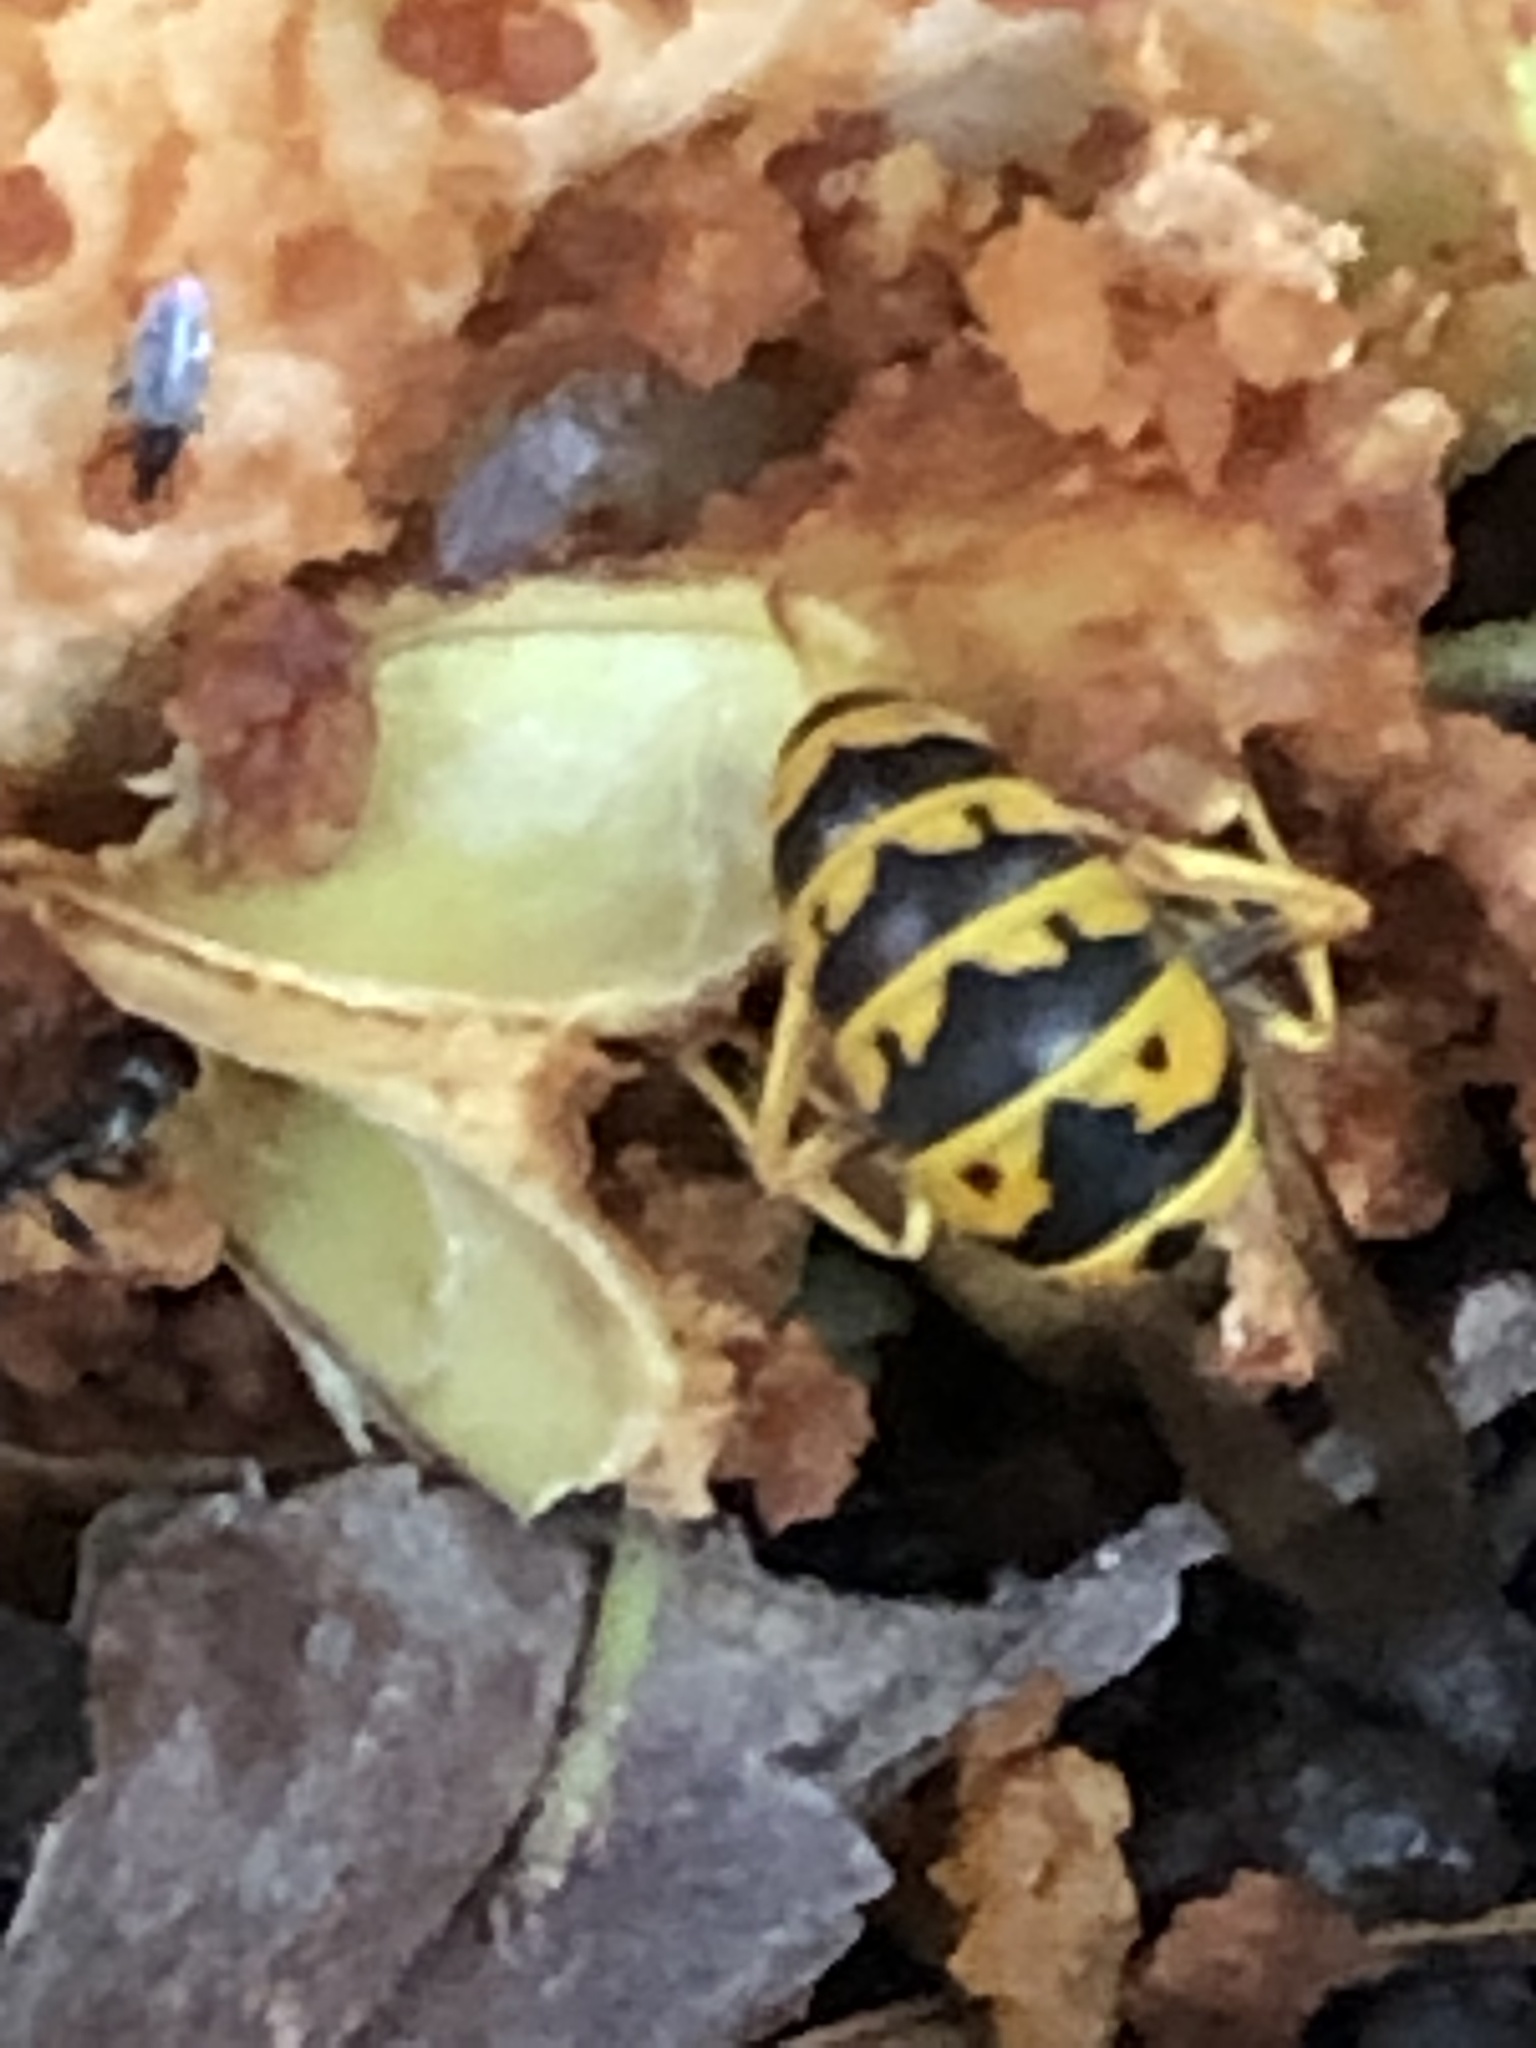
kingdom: Animalia
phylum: Arthropoda
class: Insecta
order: Hymenoptera
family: Vespidae
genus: Vespula
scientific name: Vespula germanica
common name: German wasp
